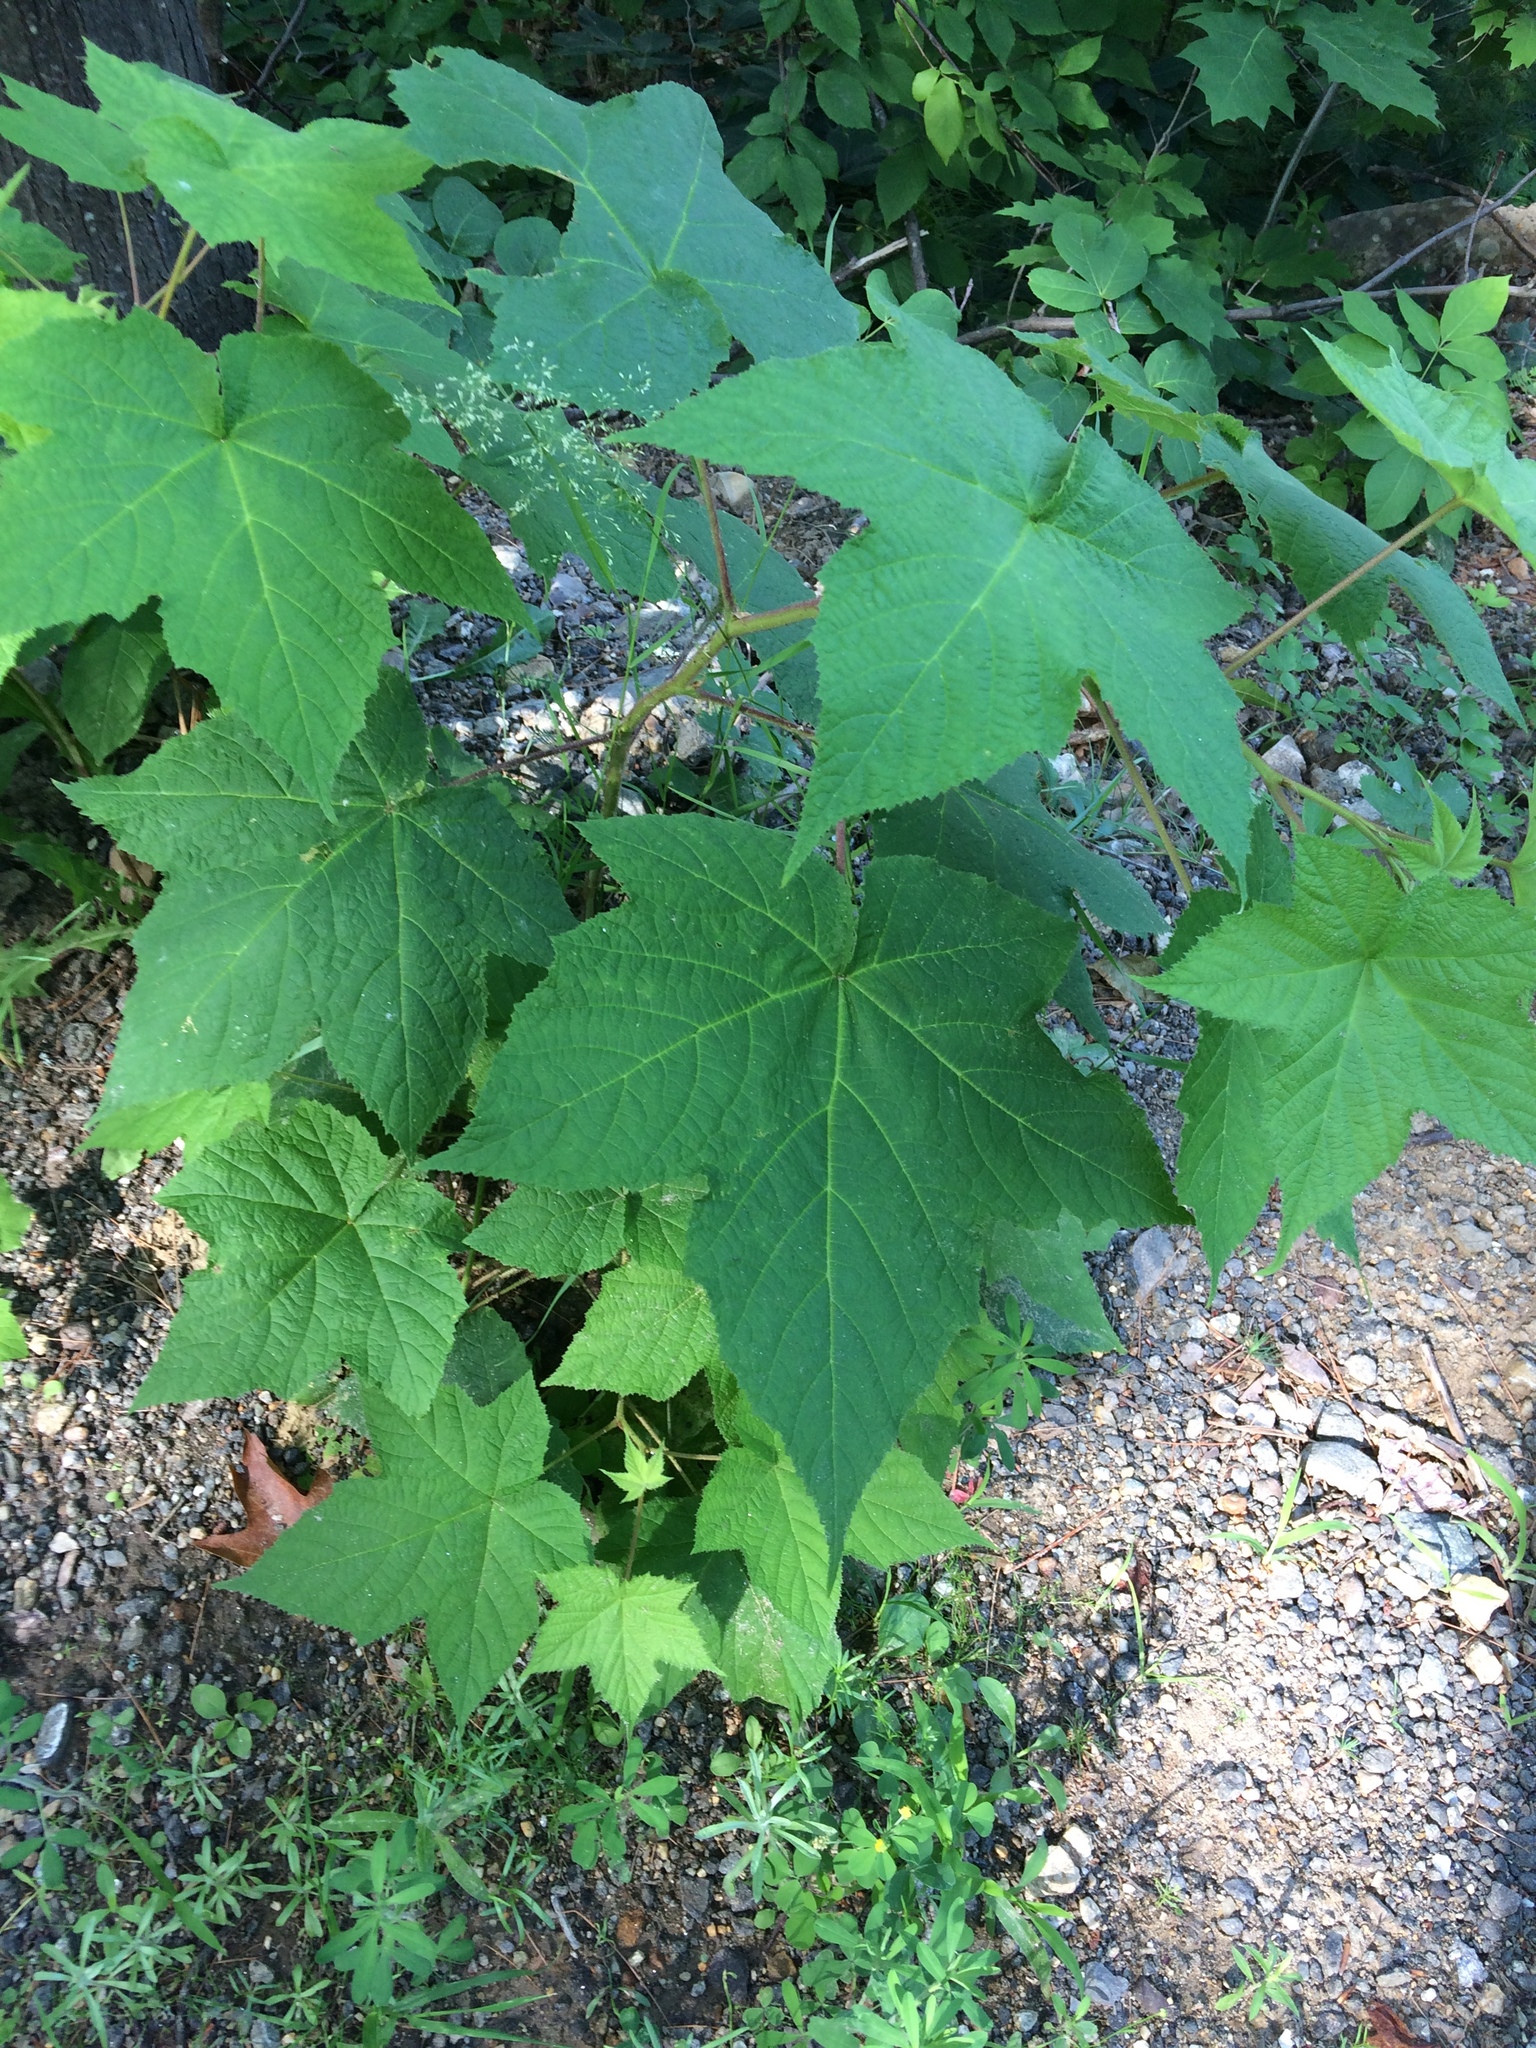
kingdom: Plantae
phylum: Tracheophyta
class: Magnoliopsida
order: Rosales
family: Rosaceae
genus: Rubus
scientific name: Rubus odoratus
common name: Purple-flowered raspberry
